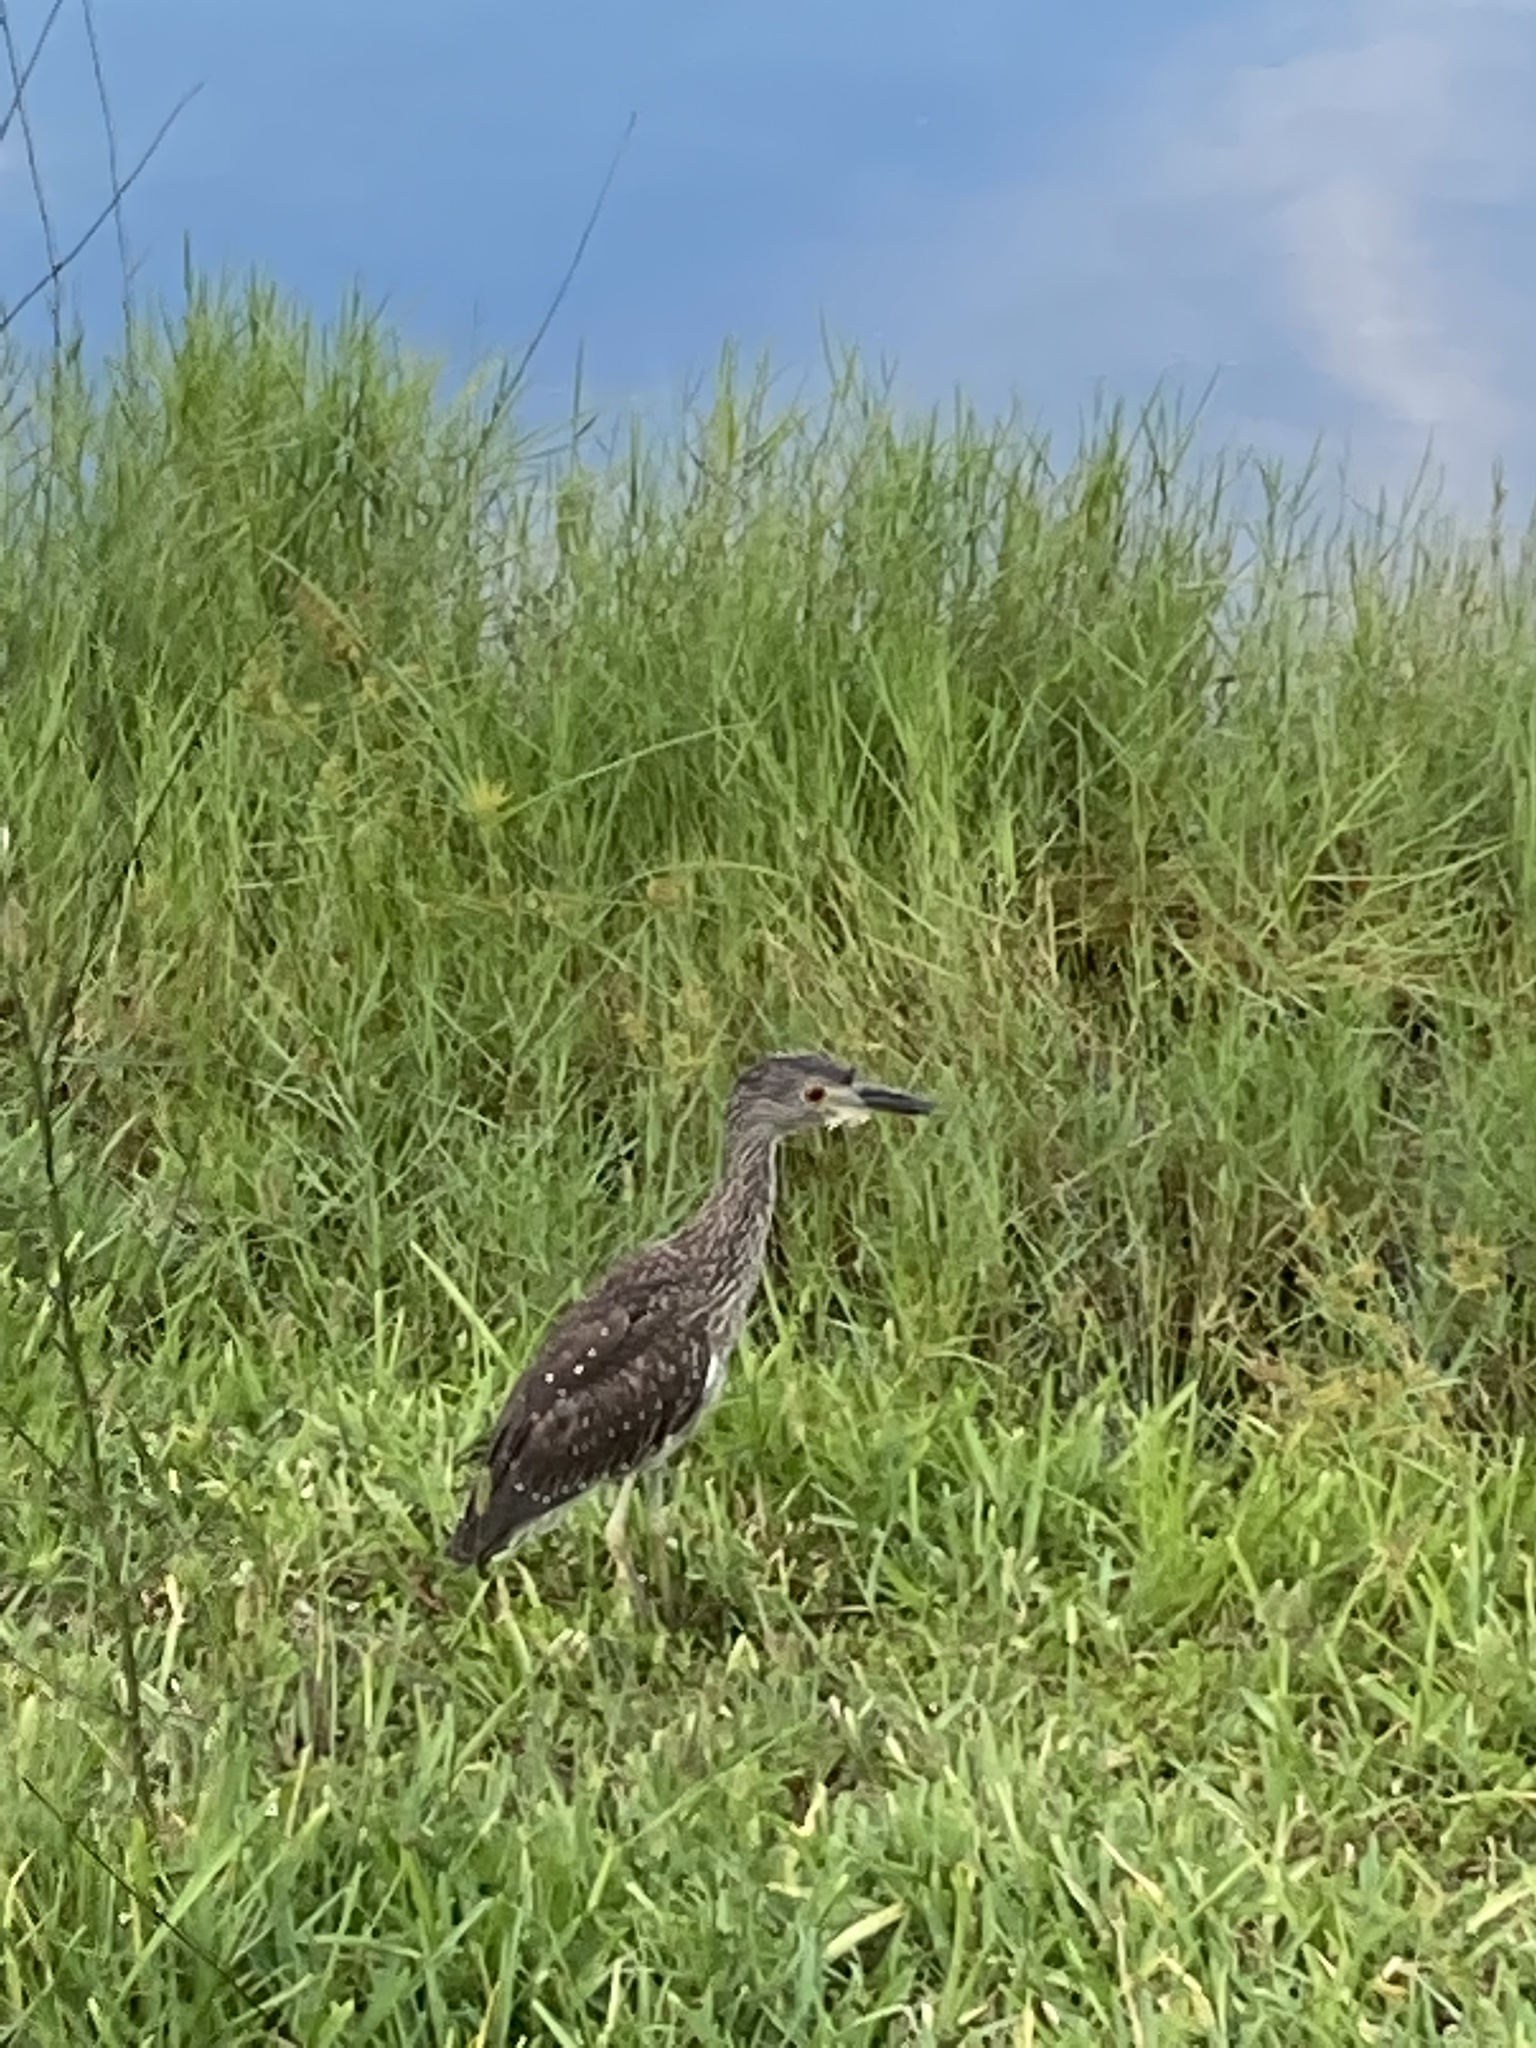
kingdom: Animalia
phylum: Chordata
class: Aves
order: Pelecaniformes
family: Ardeidae
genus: Nyctanassa
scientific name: Nyctanassa violacea
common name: Yellow-crowned night heron
